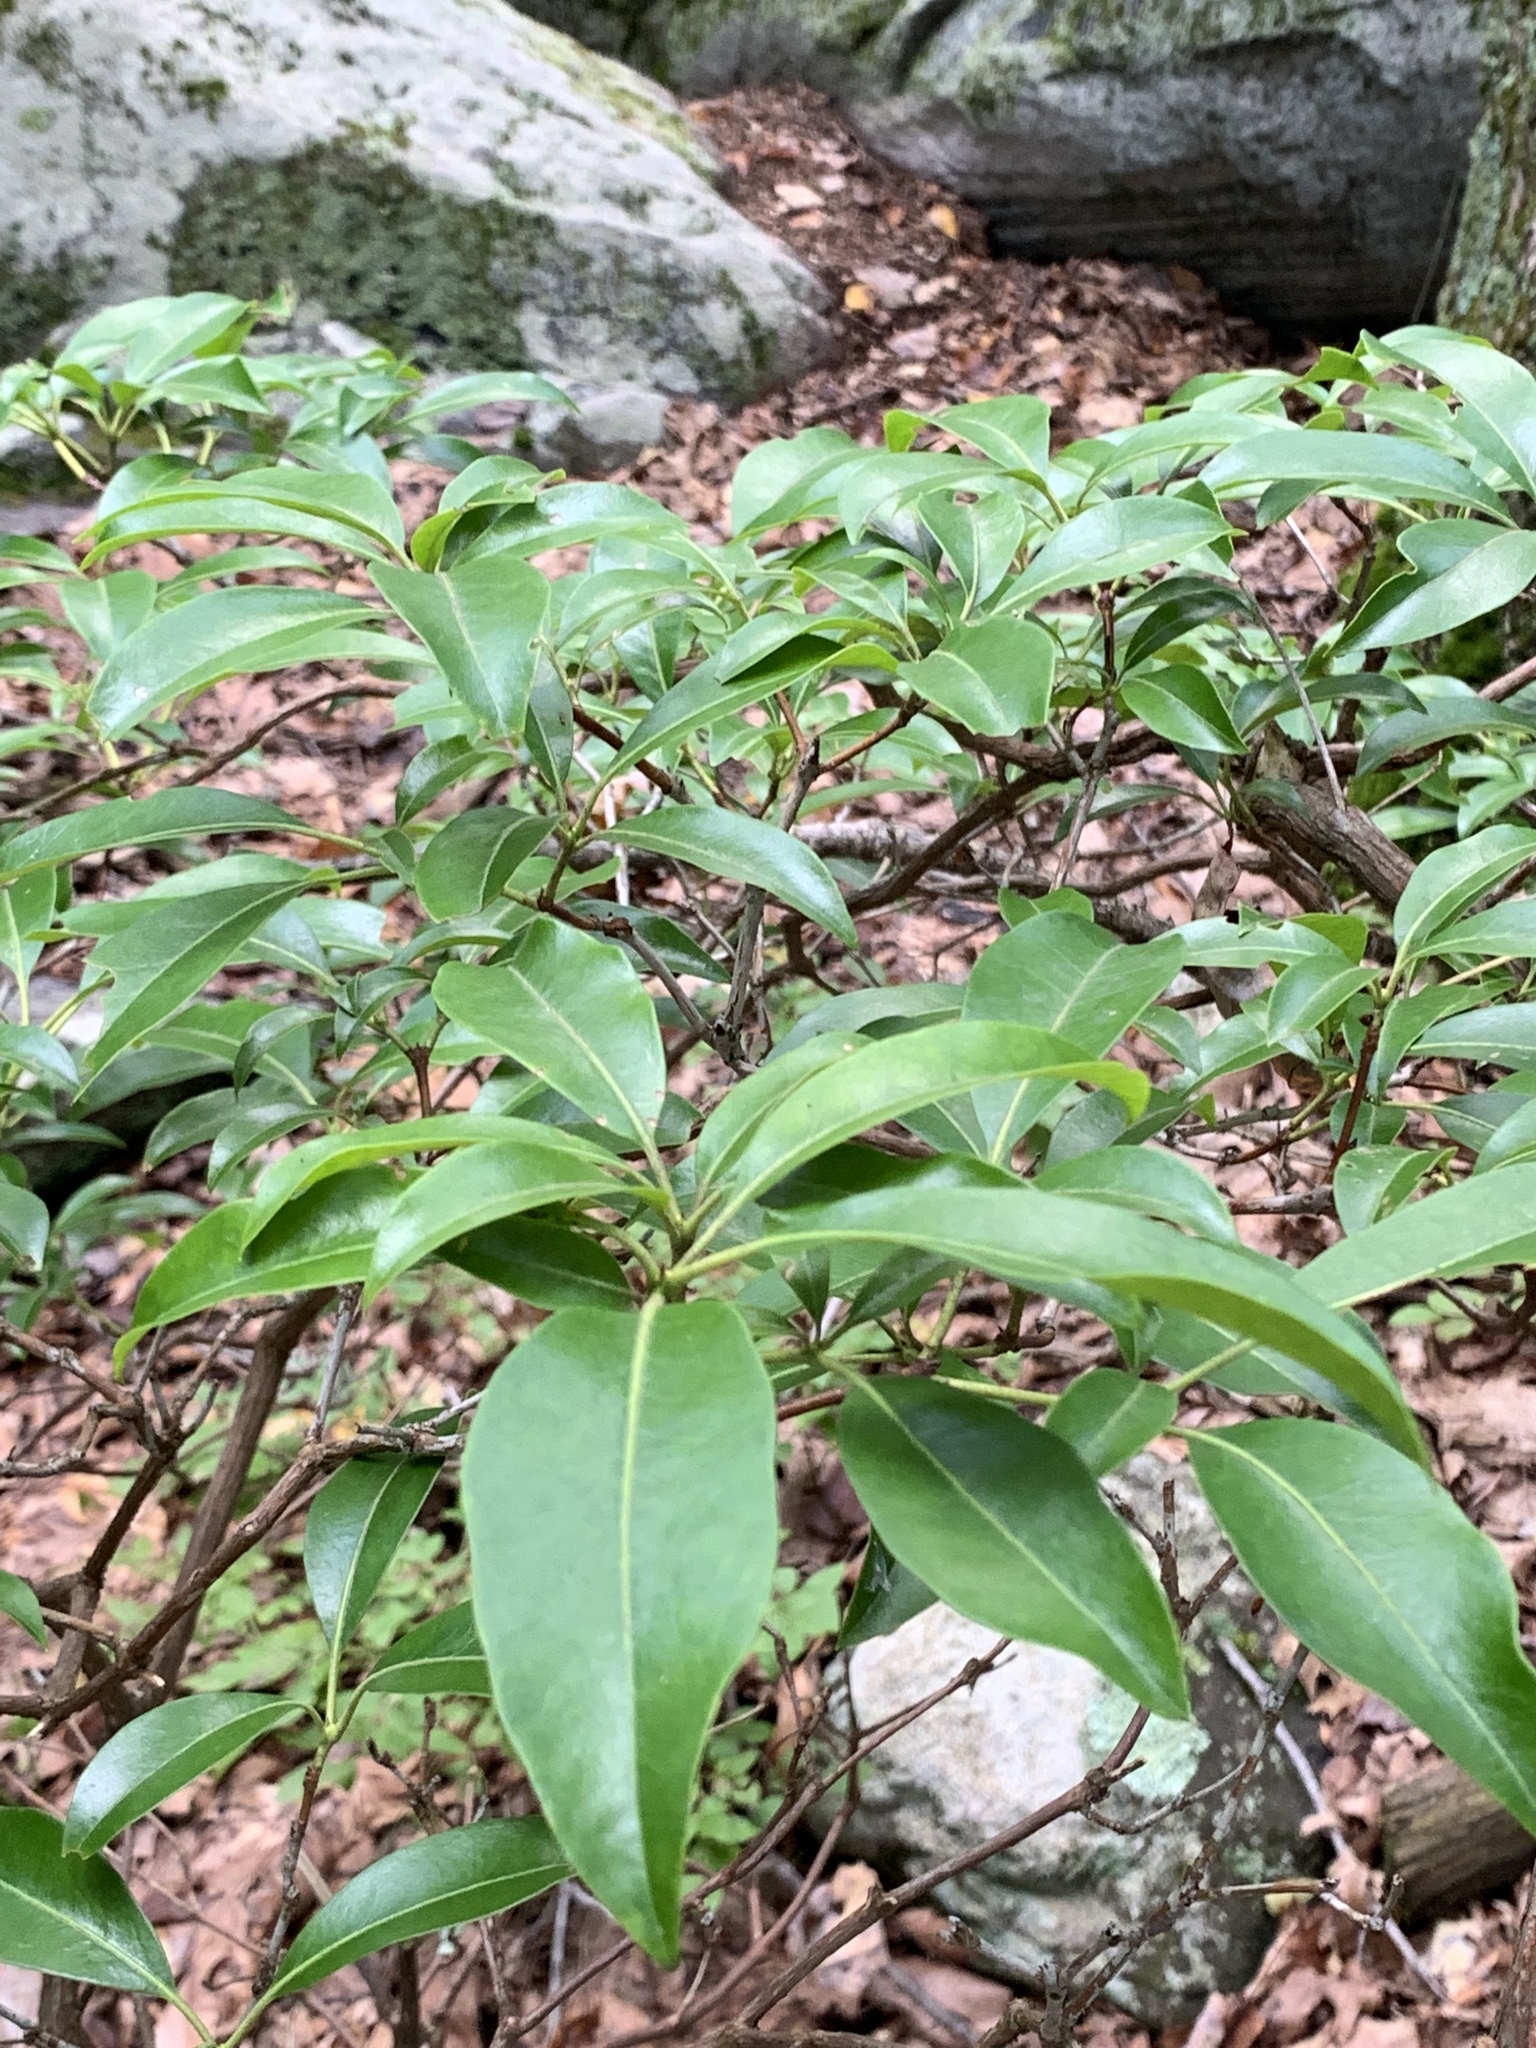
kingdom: Plantae
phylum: Tracheophyta
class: Magnoliopsida
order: Ericales
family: Ericaceae
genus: Kalmia
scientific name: Kalmia latifolia
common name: Mountain-laurel
